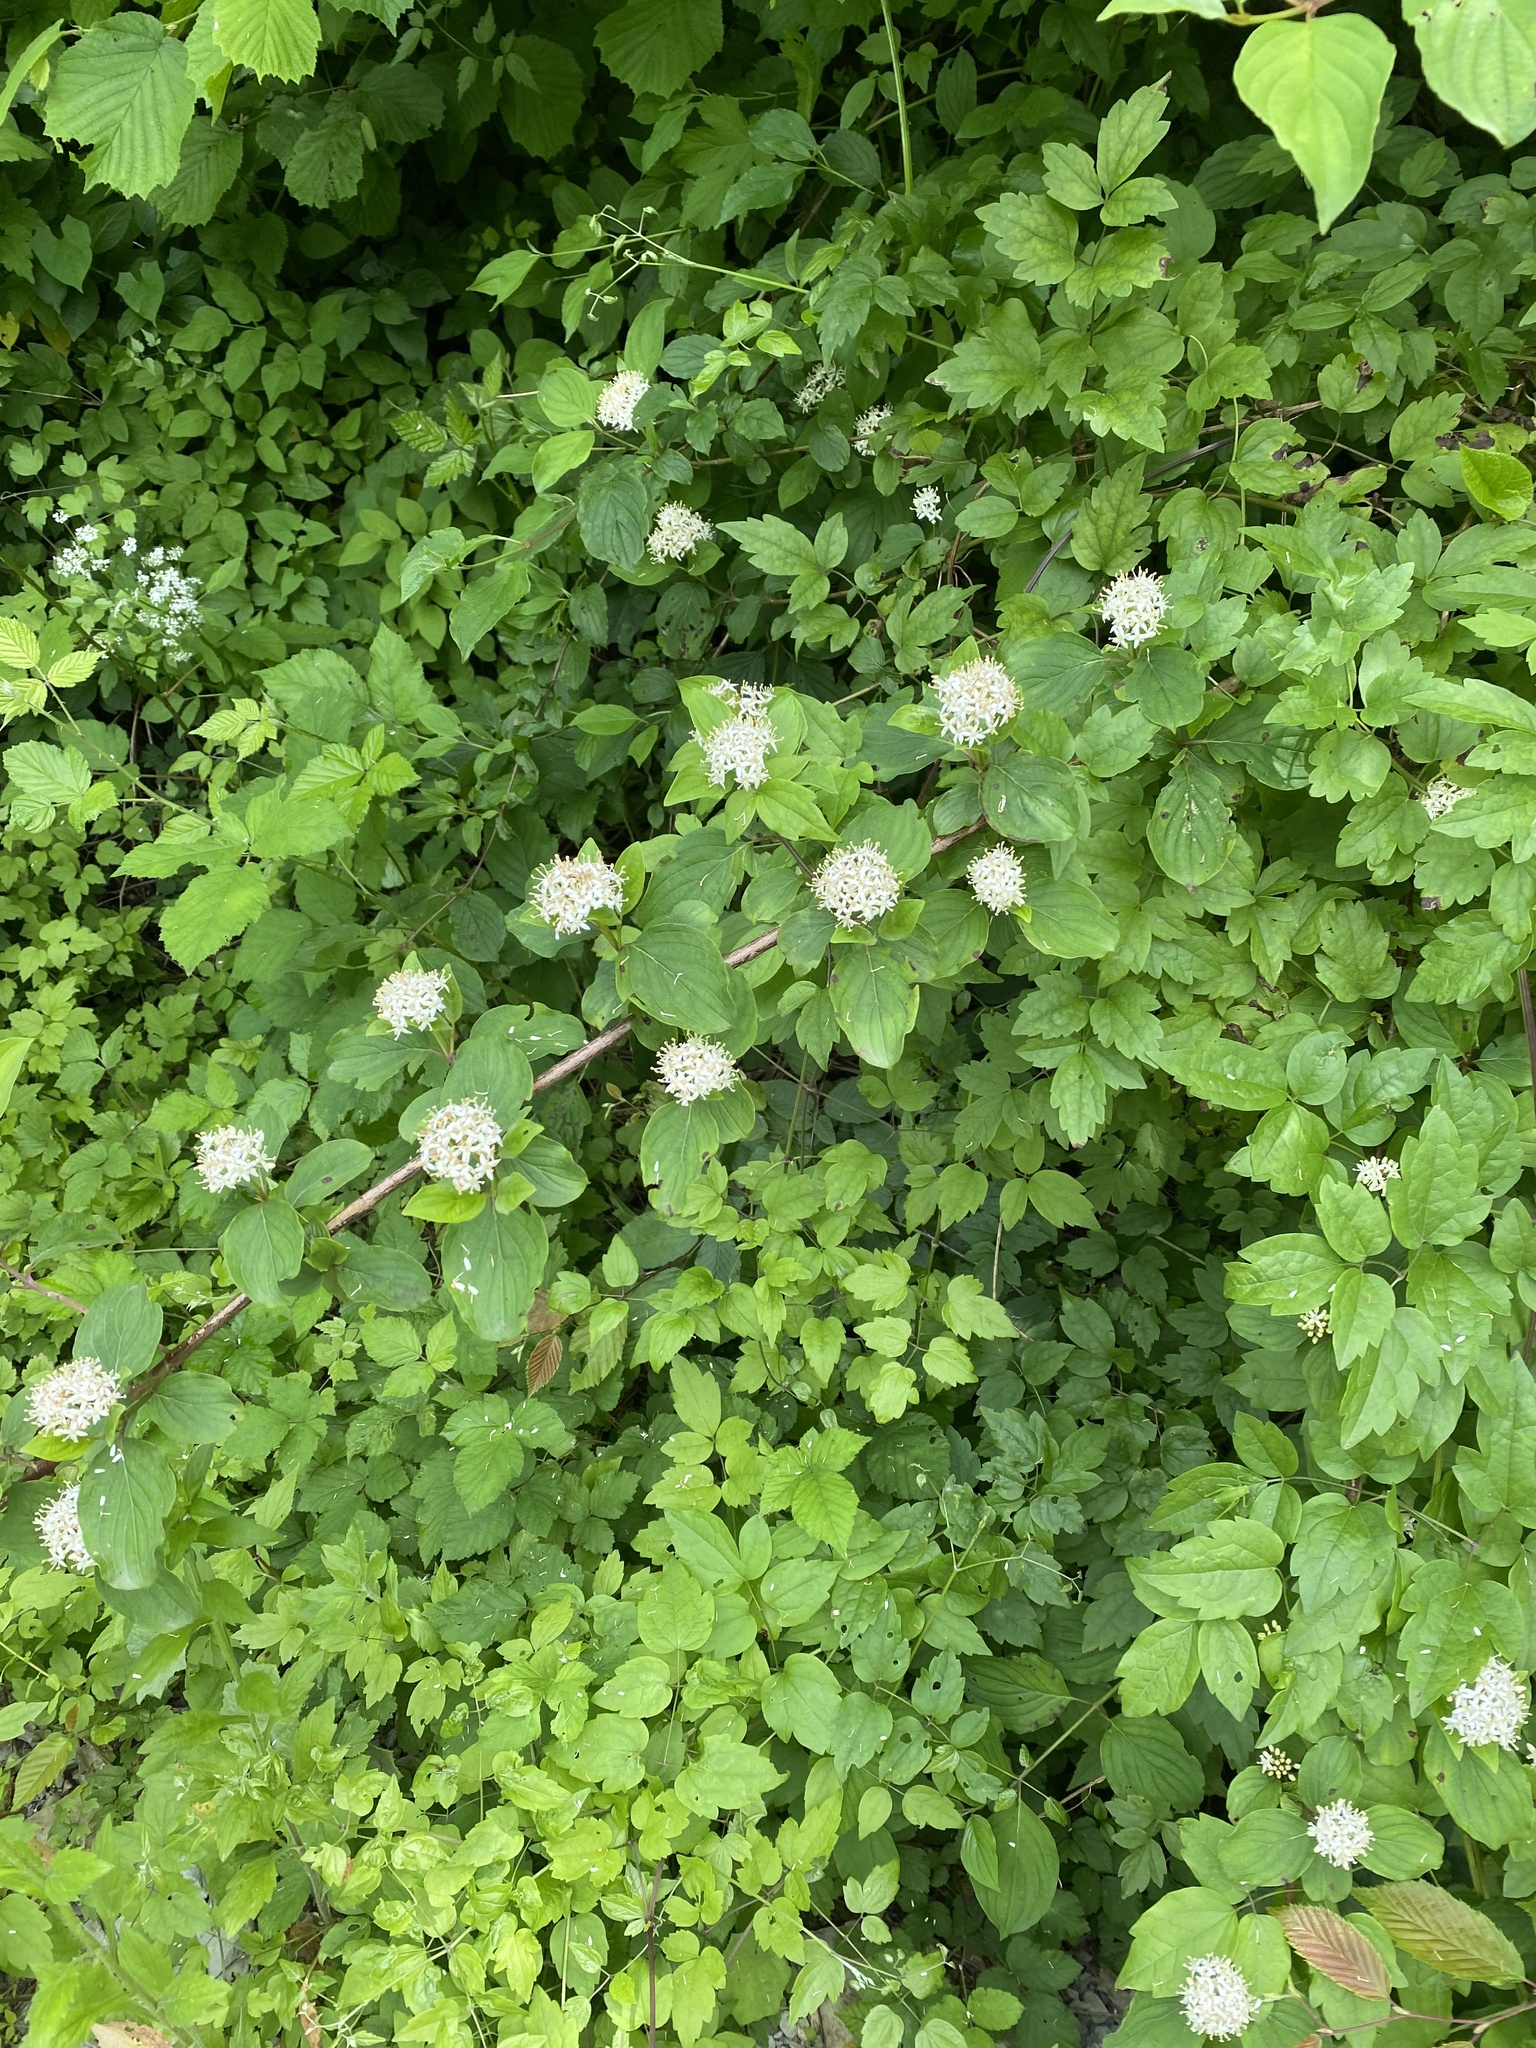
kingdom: Plantae
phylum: Tracheophyta
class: Magnoliopsida
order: Cornales
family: Cornaceae
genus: Cornus
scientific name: Cornus sanguinea
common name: Dogwood
